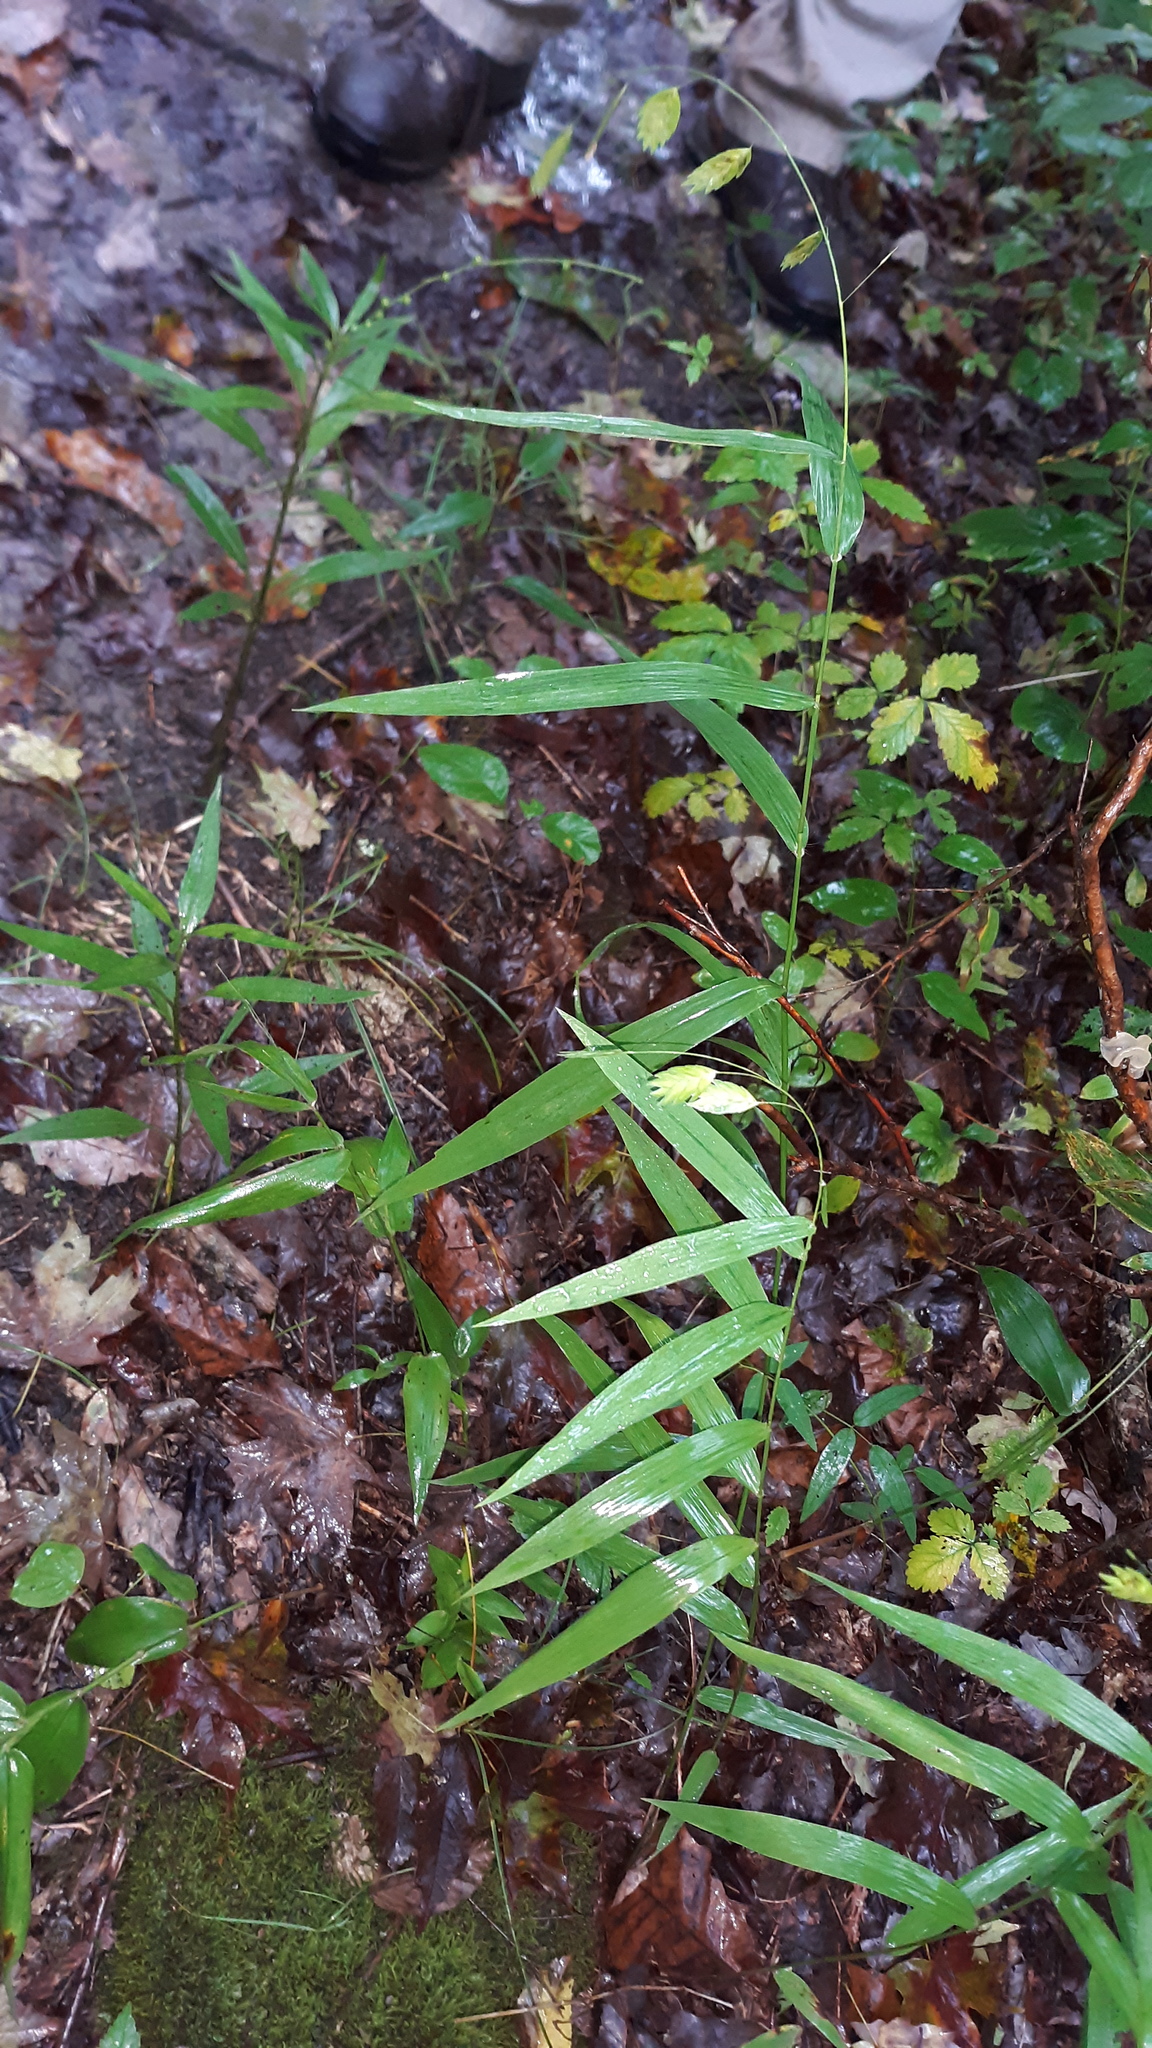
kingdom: Plantae
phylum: Tracheophyta
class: Liliopsida
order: Poales
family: Poaceae
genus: Chasmanthium
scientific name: Chasmanthium latifolium
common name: Broad-leaved chasmanthium
